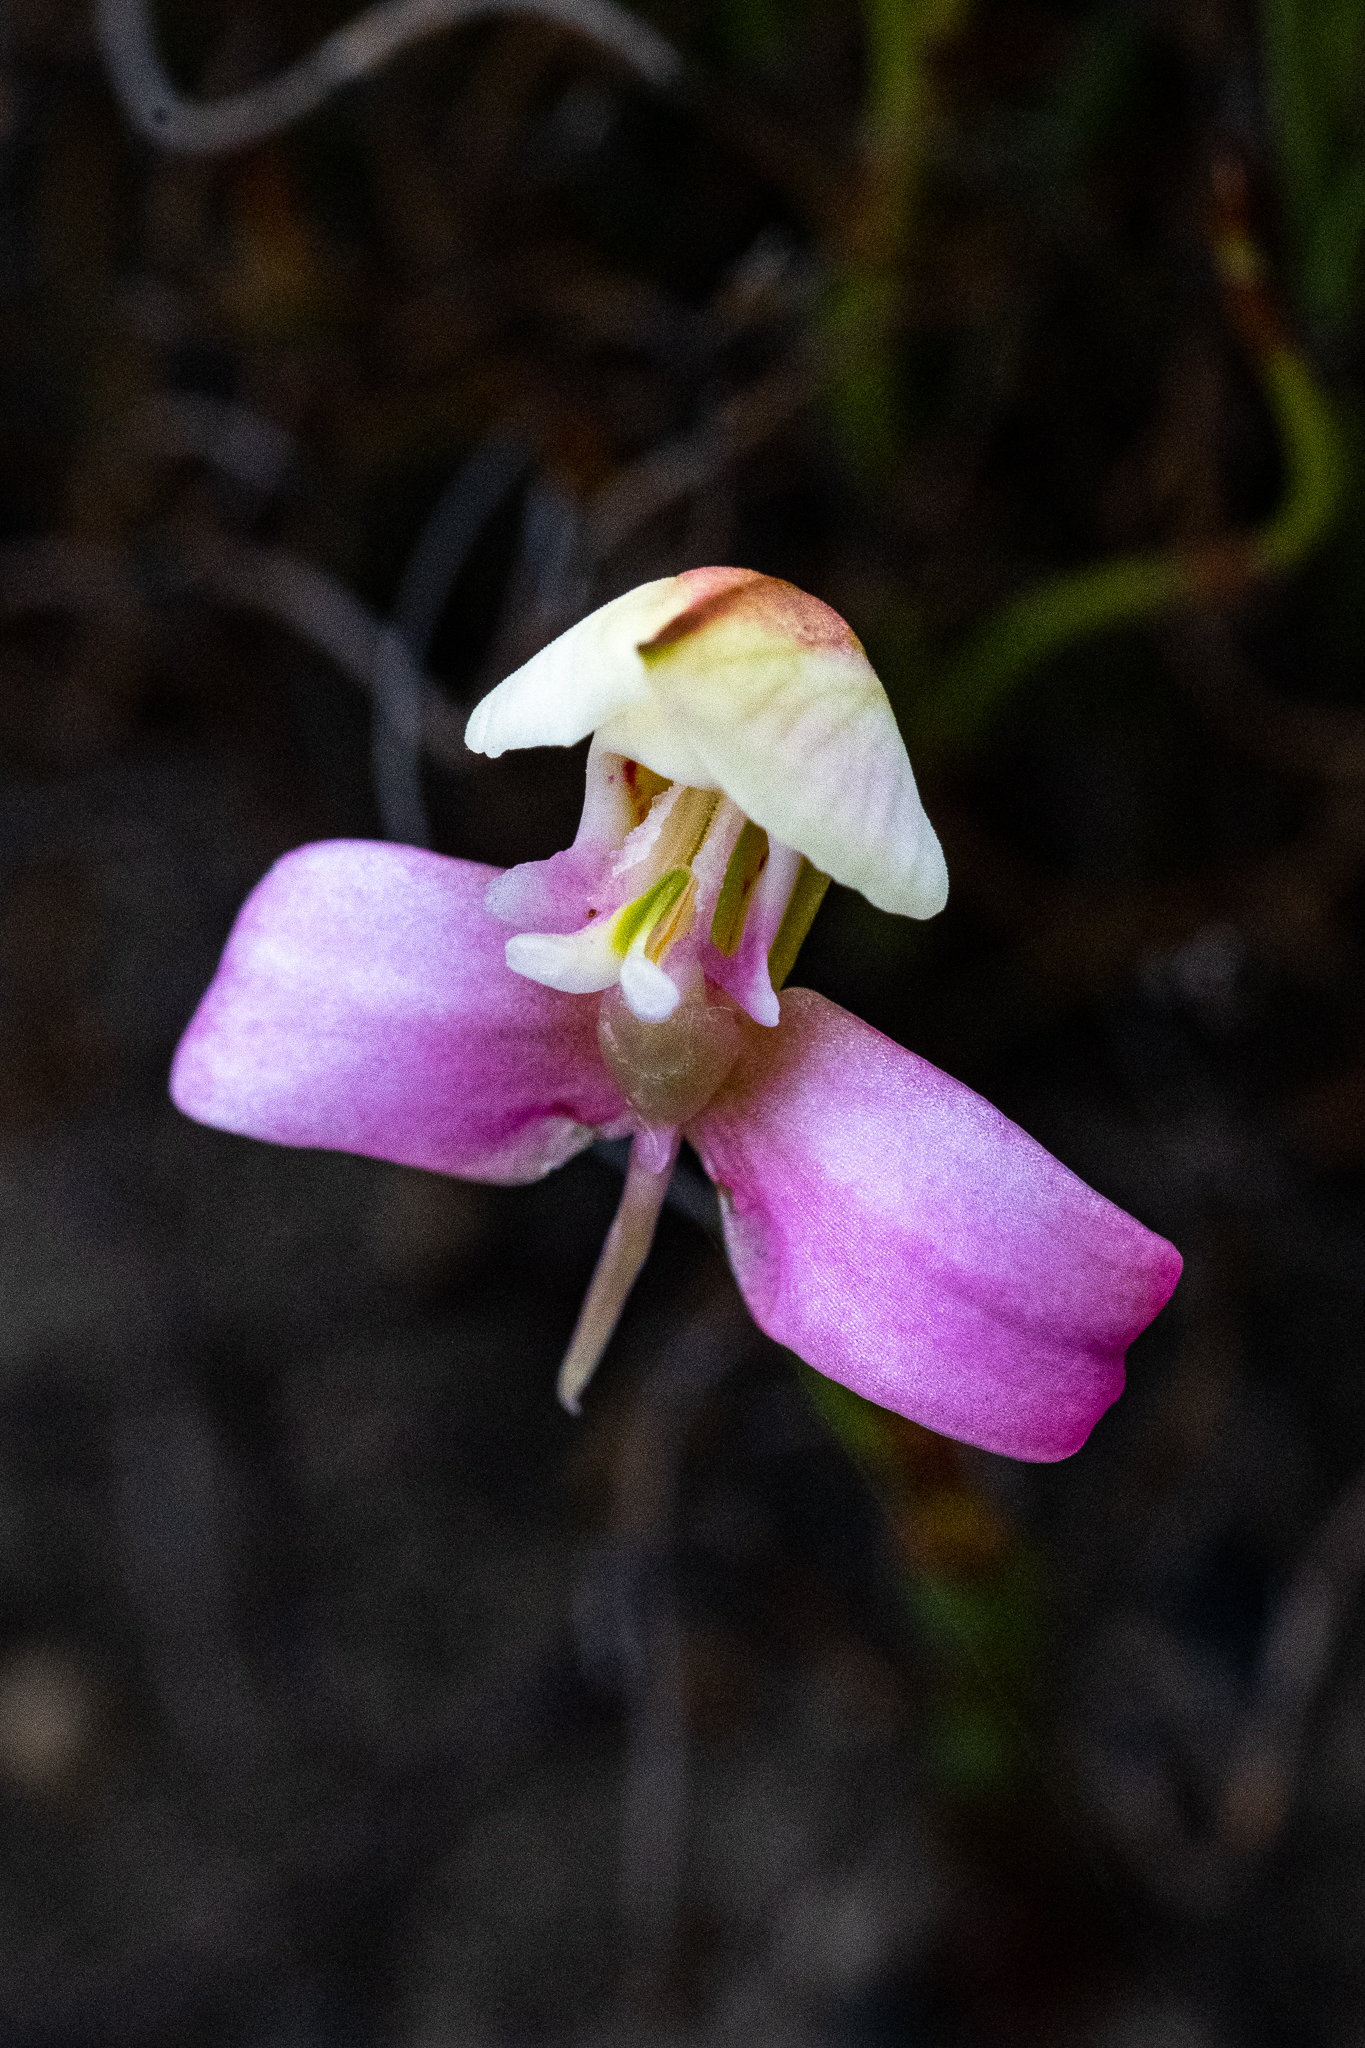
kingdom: Plantae
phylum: Tracheophyta
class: Liliopsida
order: Asparagales
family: Orchidaceae
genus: Disa
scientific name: Disa filicornis
